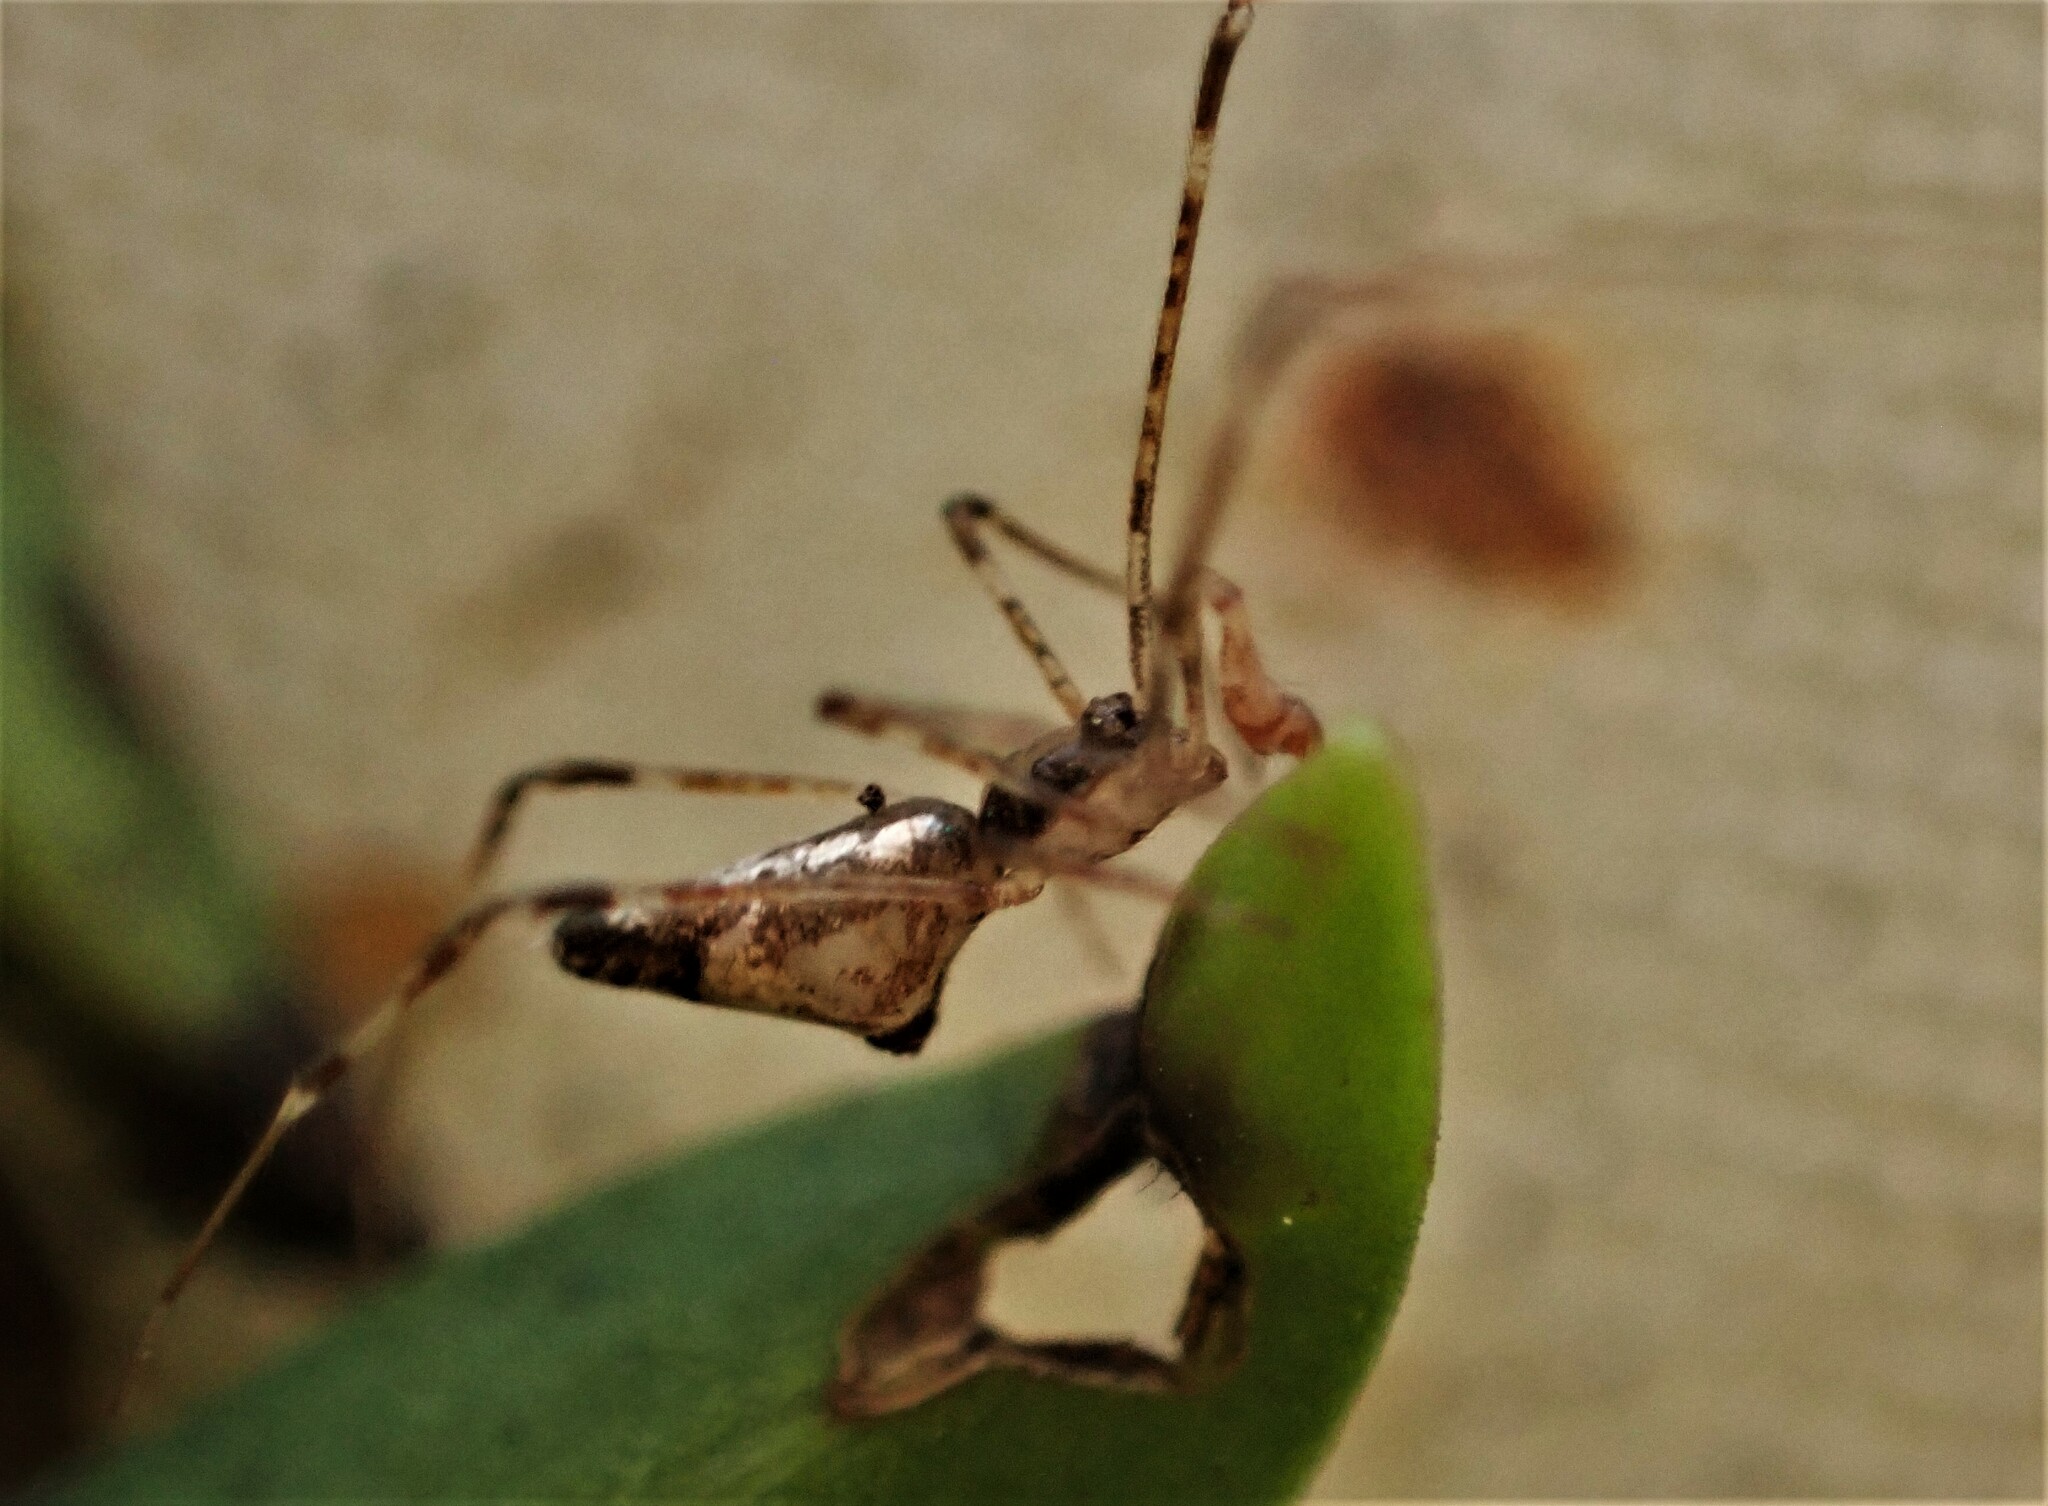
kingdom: Animalia
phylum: Arthropoda
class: Arachnida
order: Araneae
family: Theridiidae
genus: Rhomphaea
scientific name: Rhomphaea urquharti
